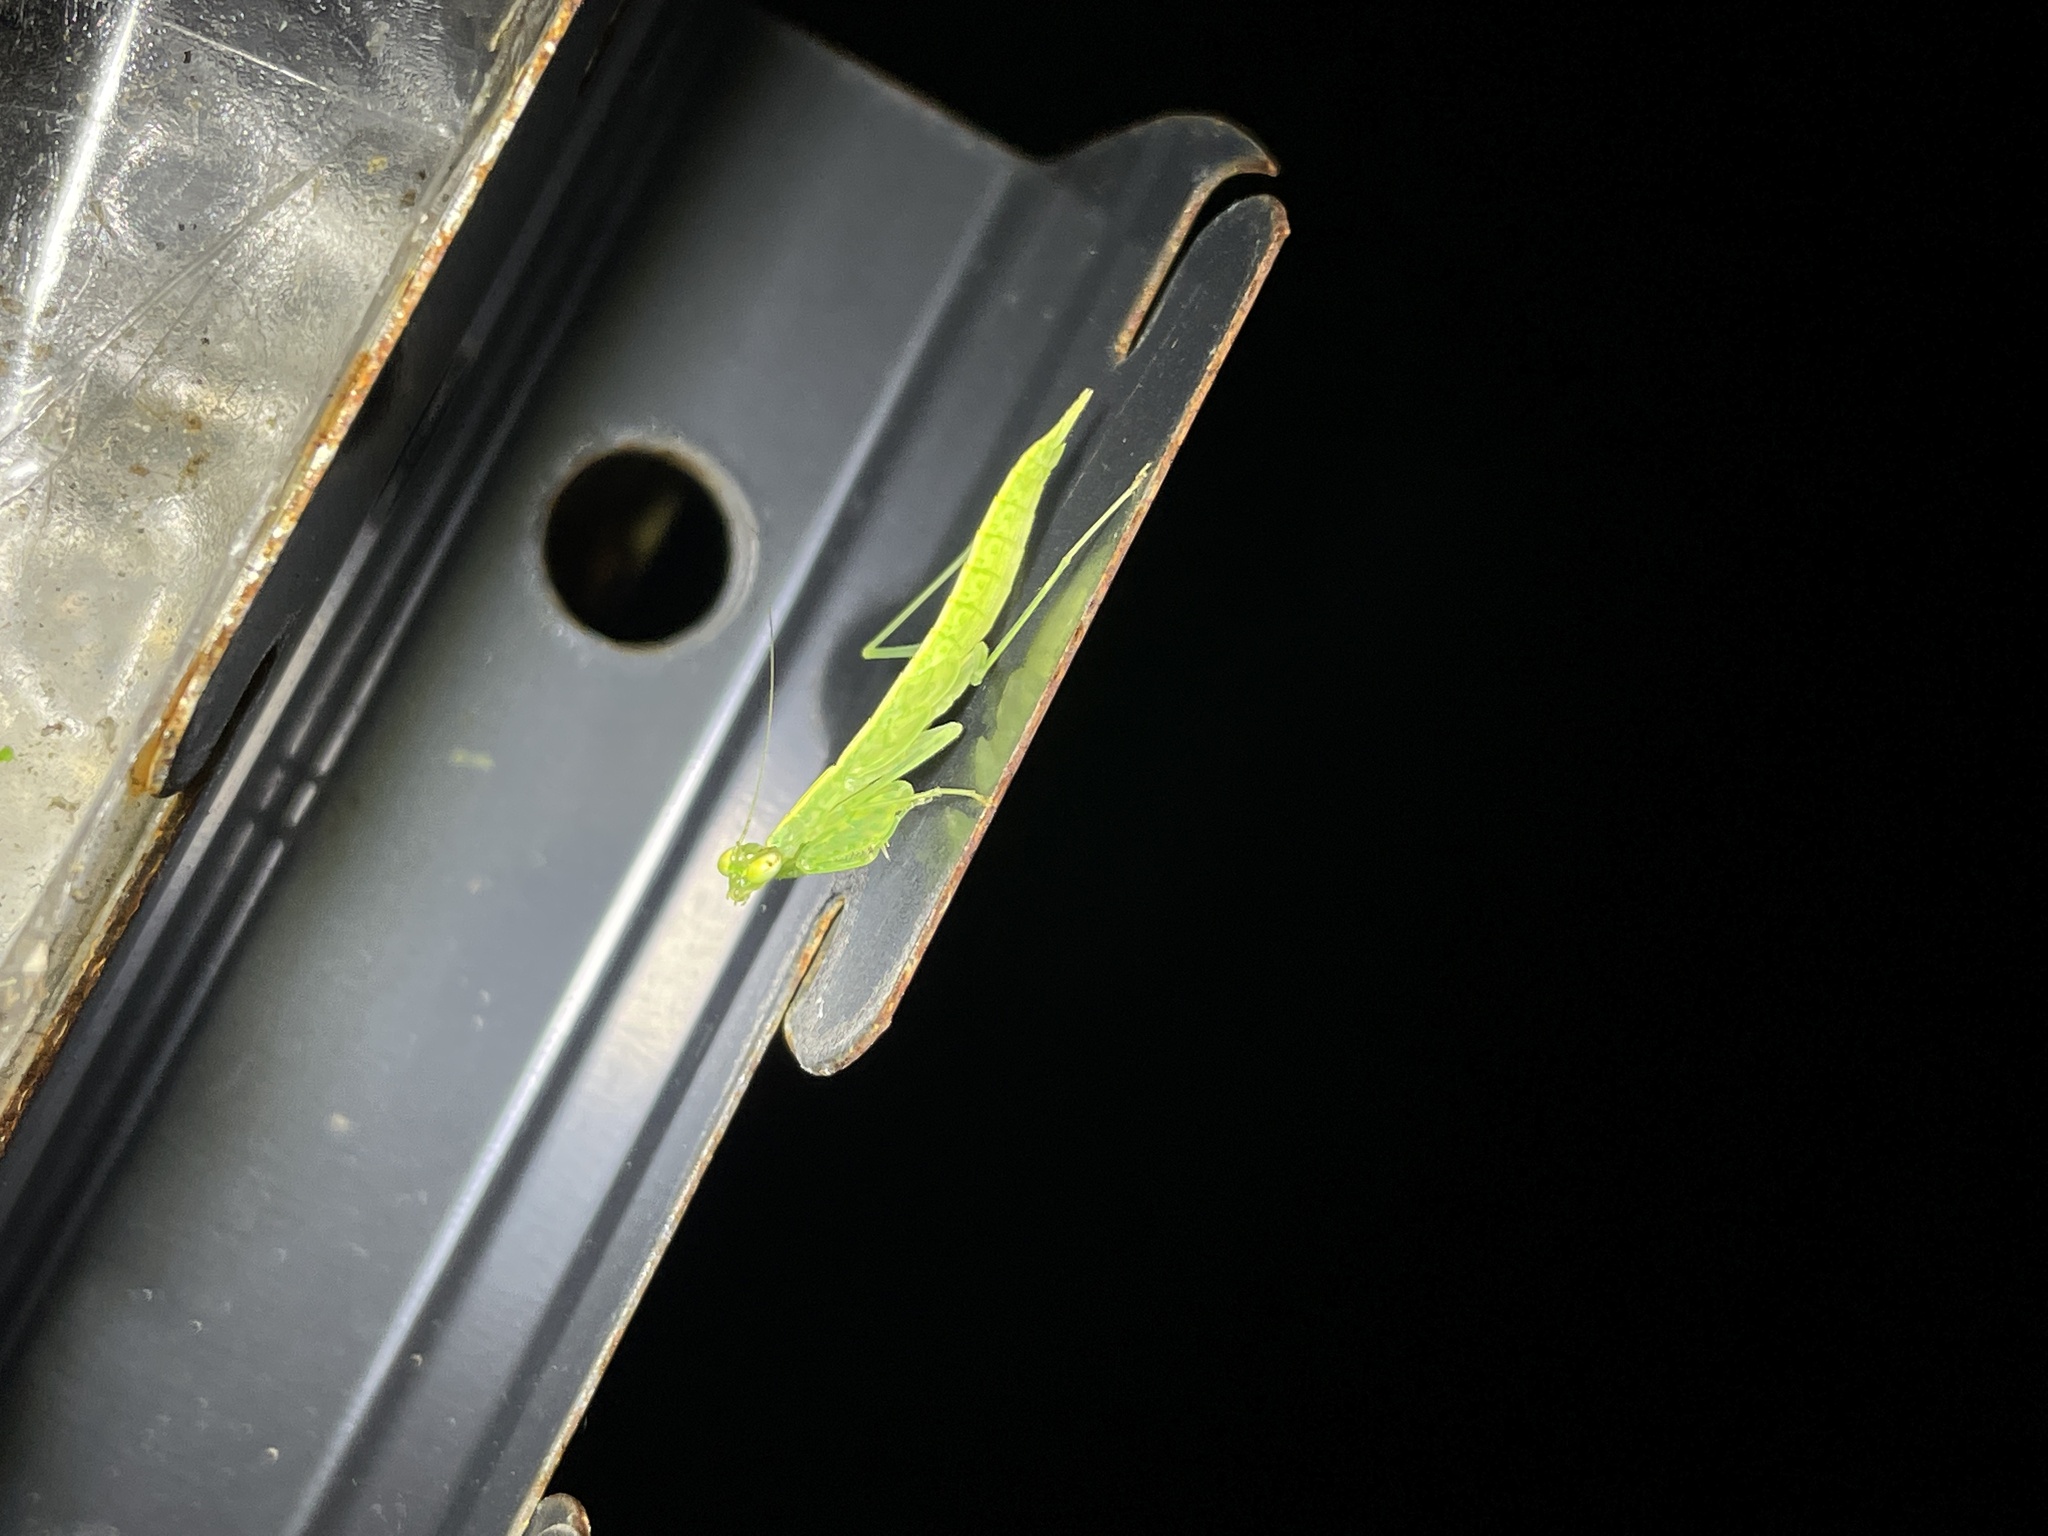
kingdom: Animalia
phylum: Arthropoda
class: Insecta
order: Mantodea
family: Nanomantidae
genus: Tropidomantis
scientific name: Tropidomantis gressitti
